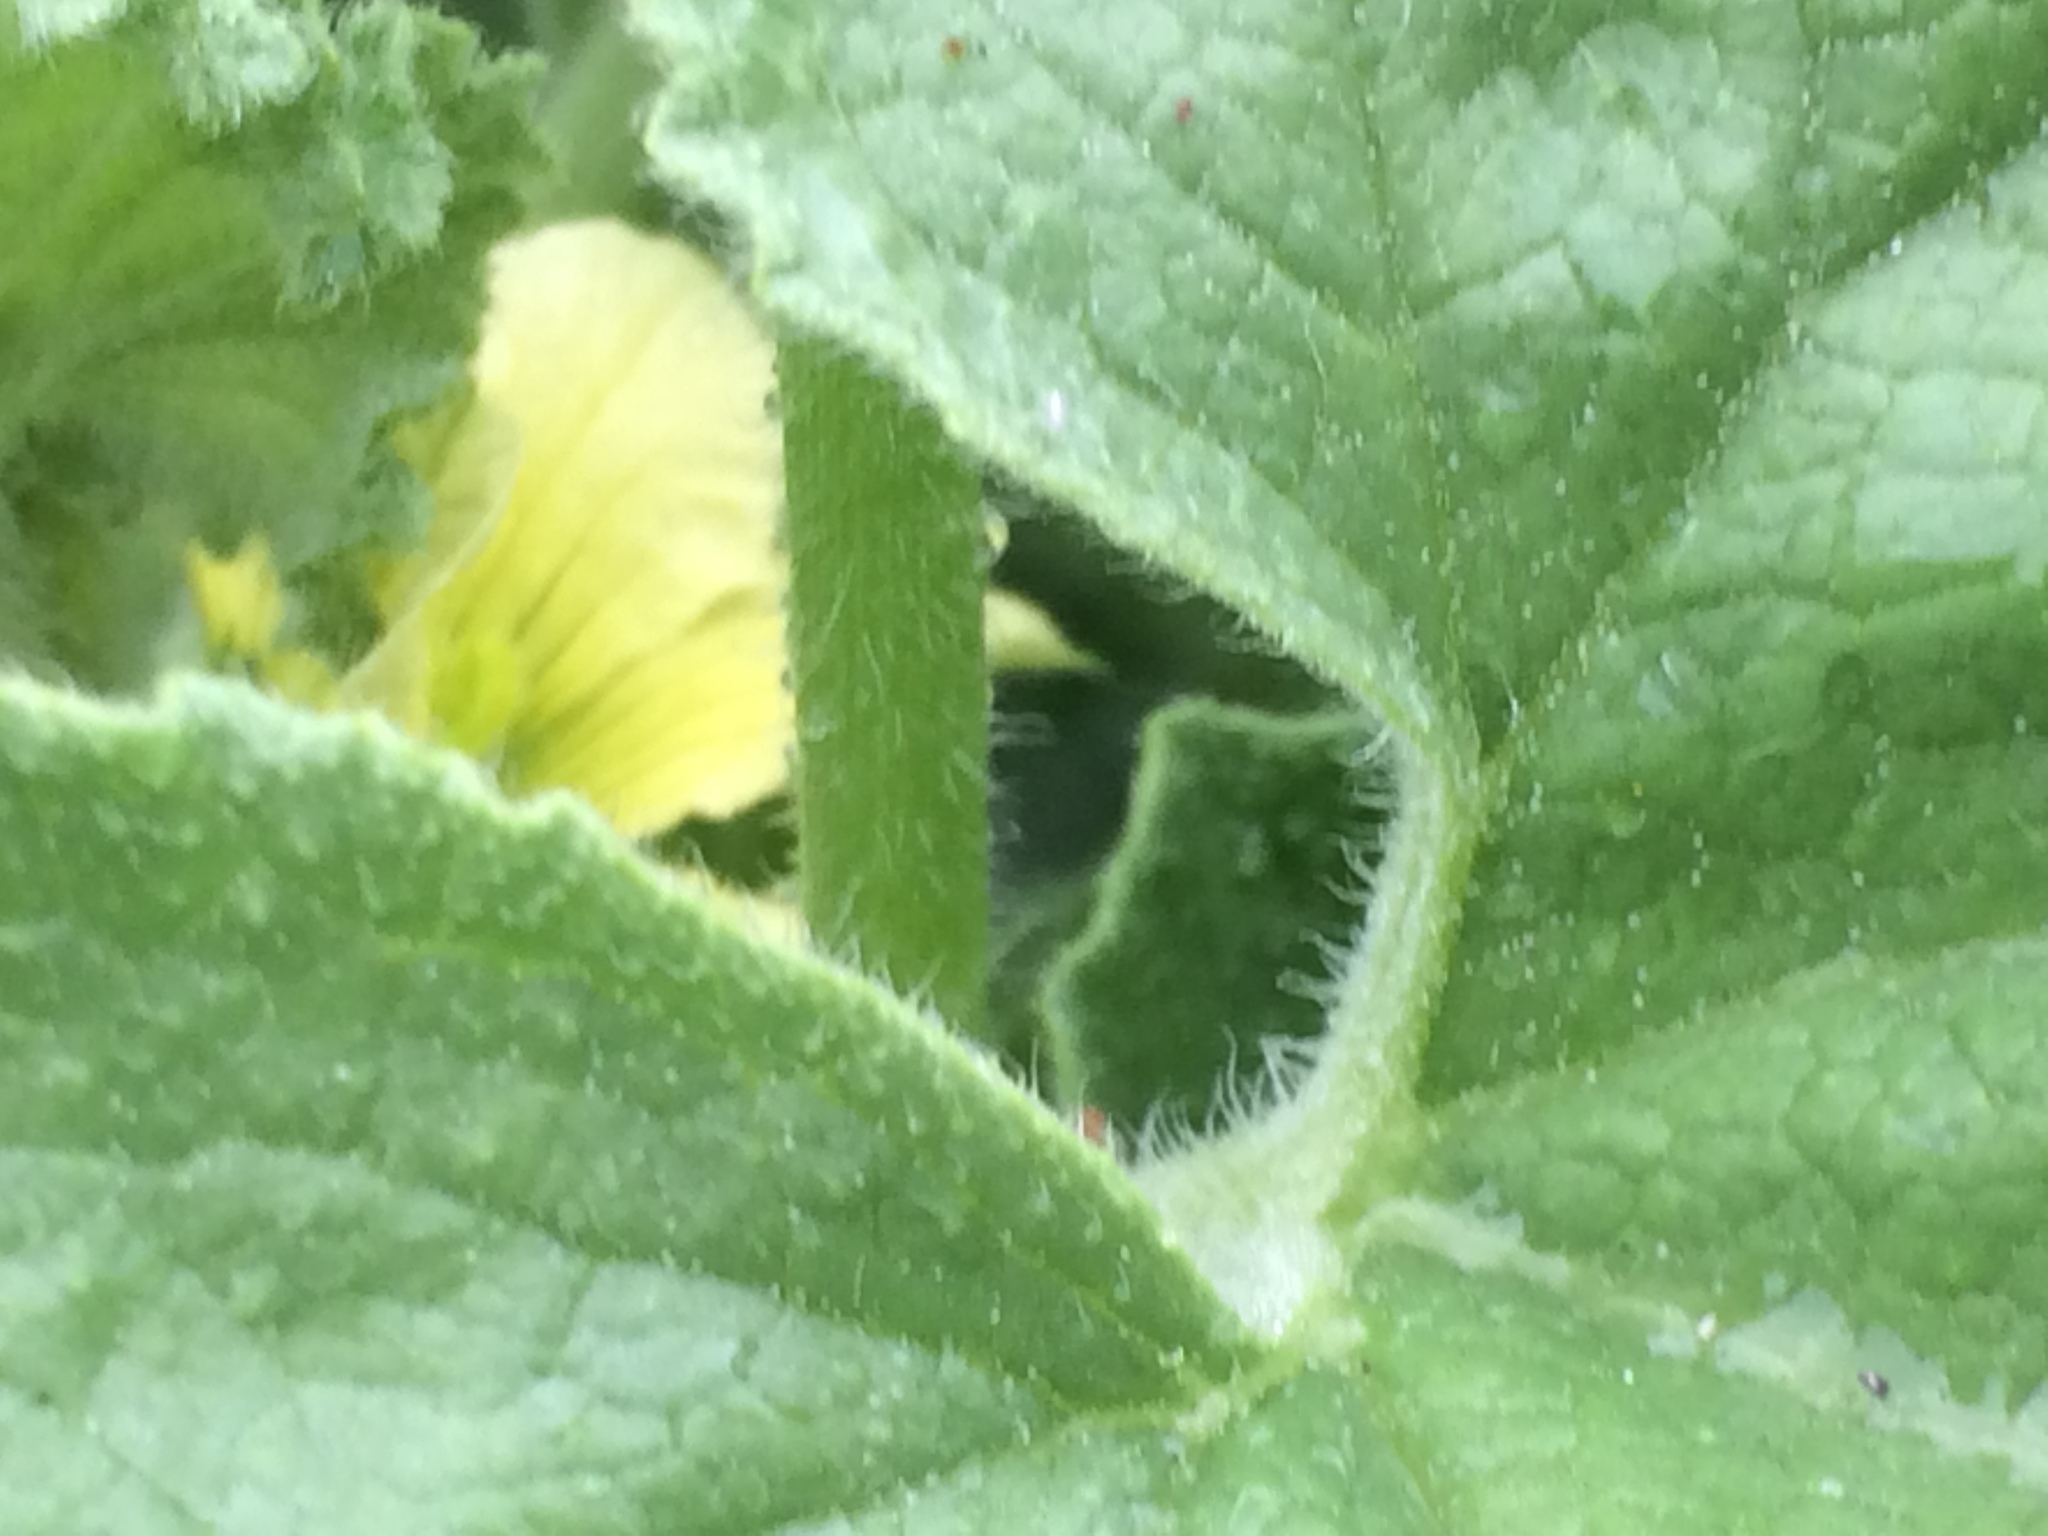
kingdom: Plantae
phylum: Tracheophyta
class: Magnoliopsida
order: Cucurbitales
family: Cucurbitaceae
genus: Ecballium
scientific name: Ecballium elaterium
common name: Squirting cucumber
